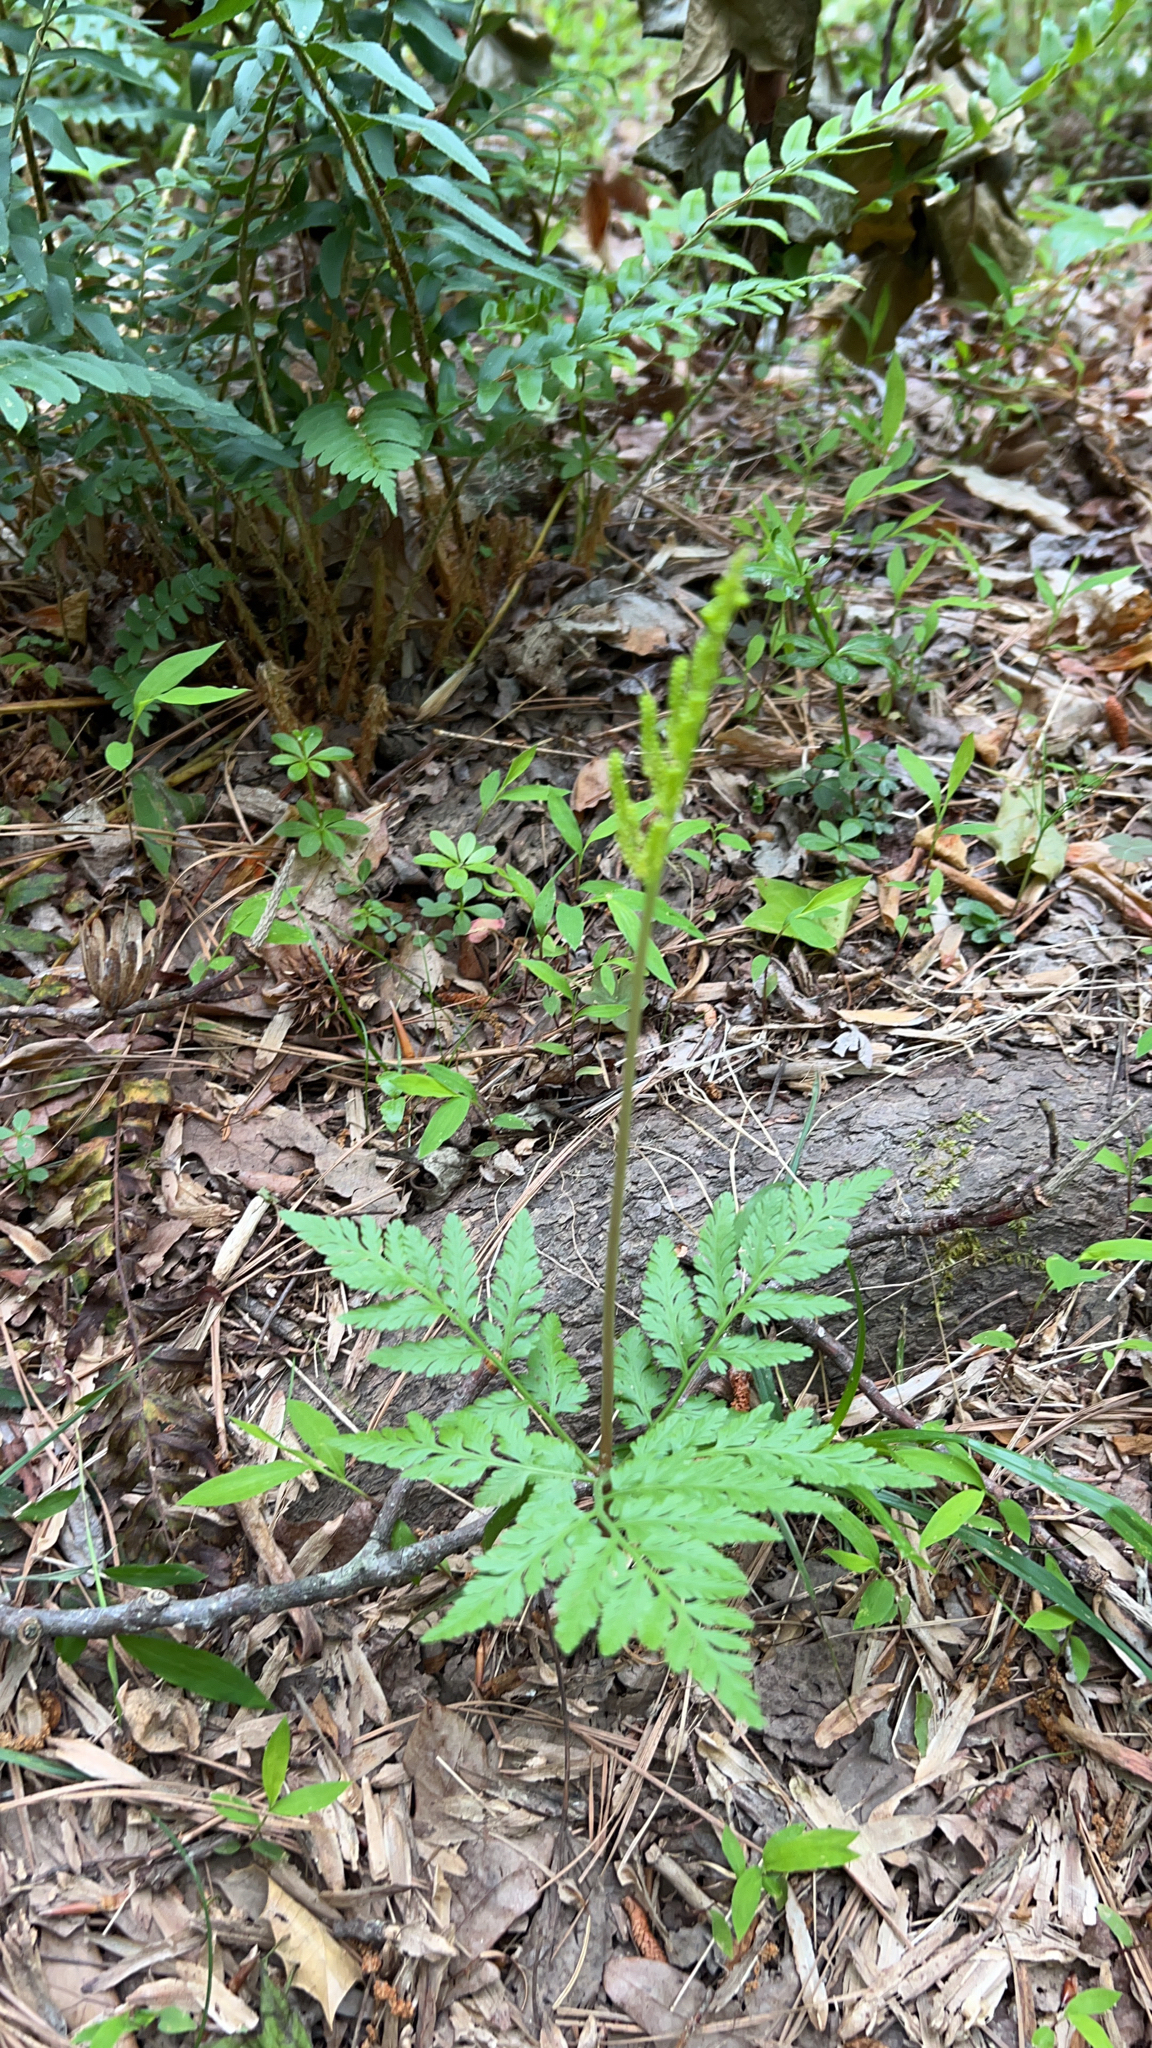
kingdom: Plantae
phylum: Tracheophyta
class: Polypodiopsida
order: Ophioglossales
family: Ophioglossaceae
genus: Botrypus
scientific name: Botrypus virginianus
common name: Common grapefern
